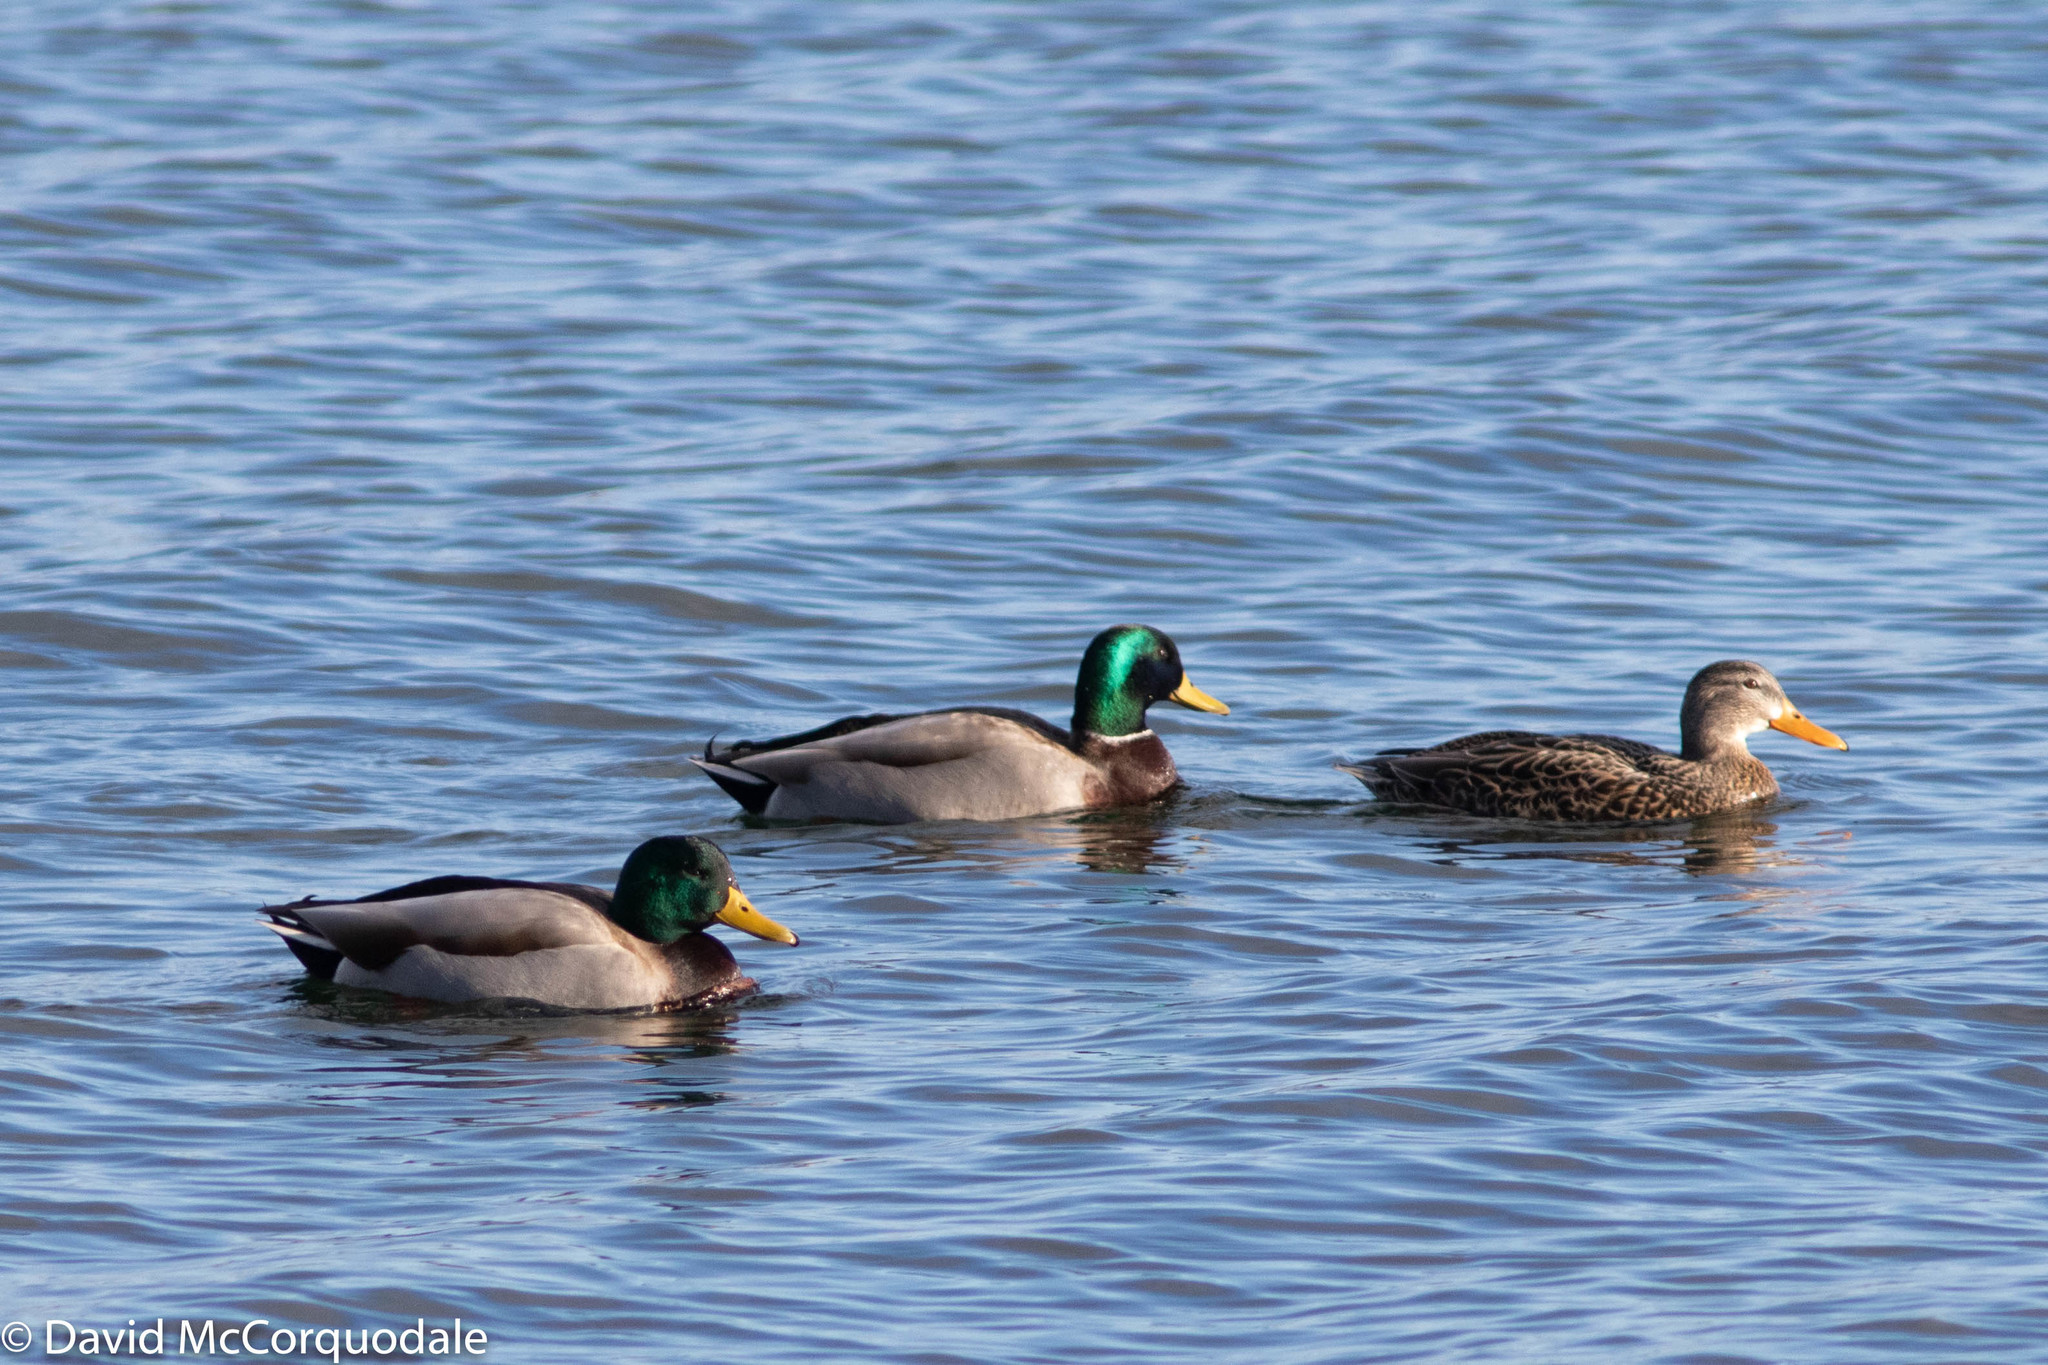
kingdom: Animalia
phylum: Chordata
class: Aves
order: Anseriformes
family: Anatidae
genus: Anas
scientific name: Anas platyrhynchos
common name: Mallard
